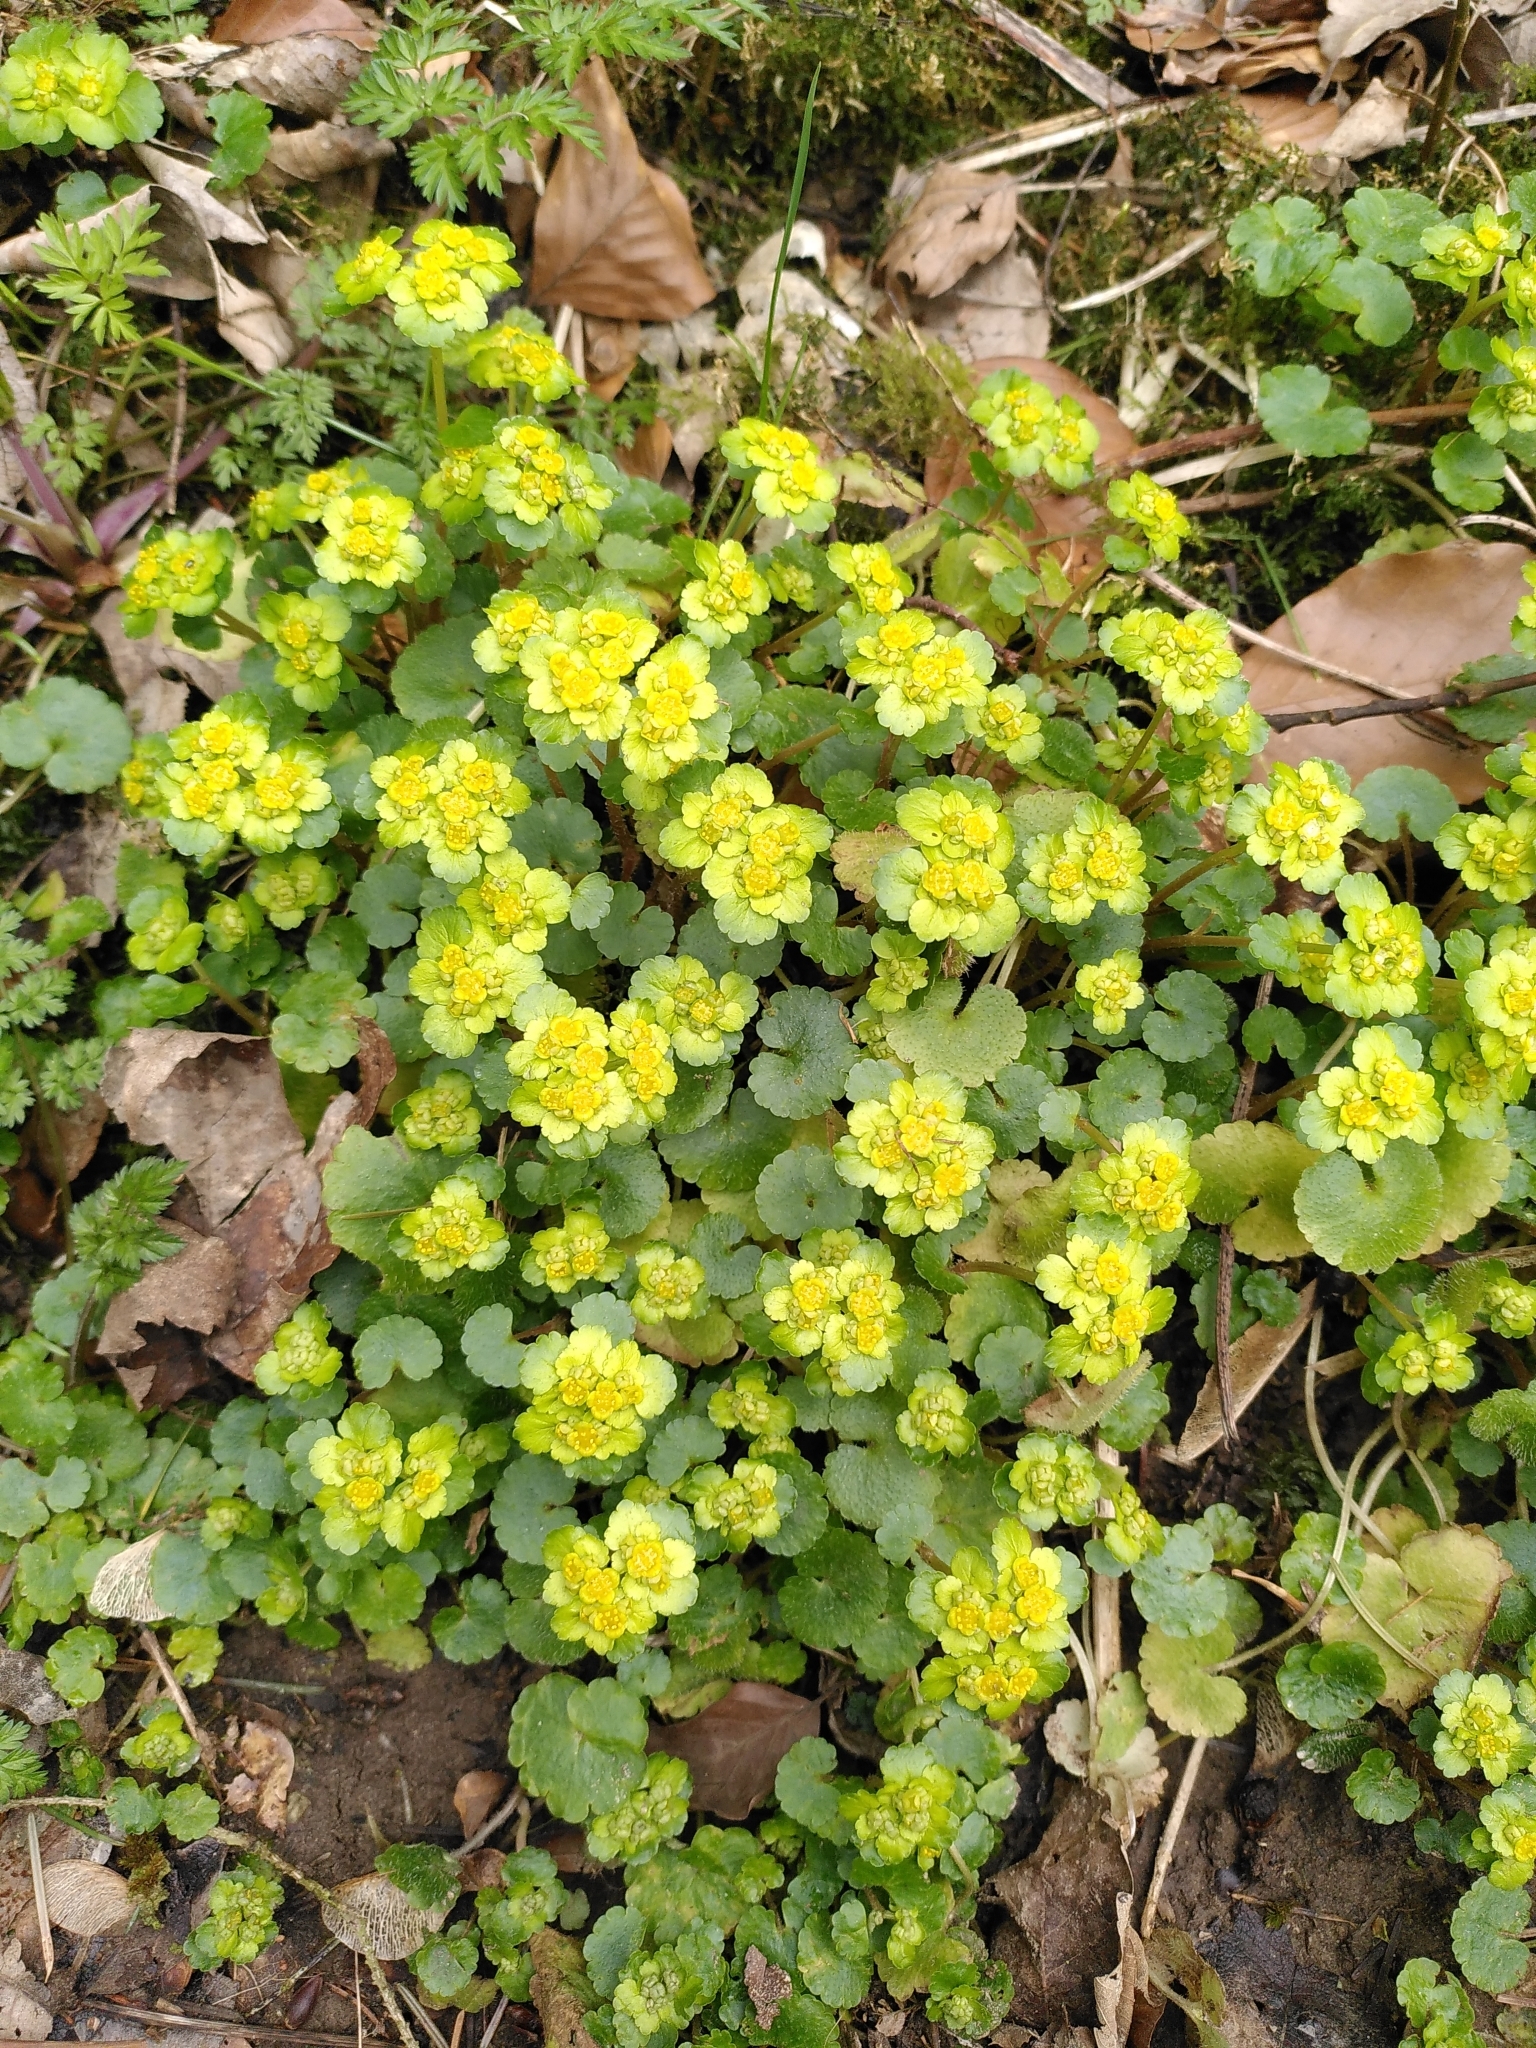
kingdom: Plantae
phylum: Tracheophyta
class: Magnoliopsida
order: Saxifragales
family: Saxifragaceae
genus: Chrysosplenium
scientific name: Chrysosplenium alternifolium
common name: Alternate-leaved golden-saxifrage
